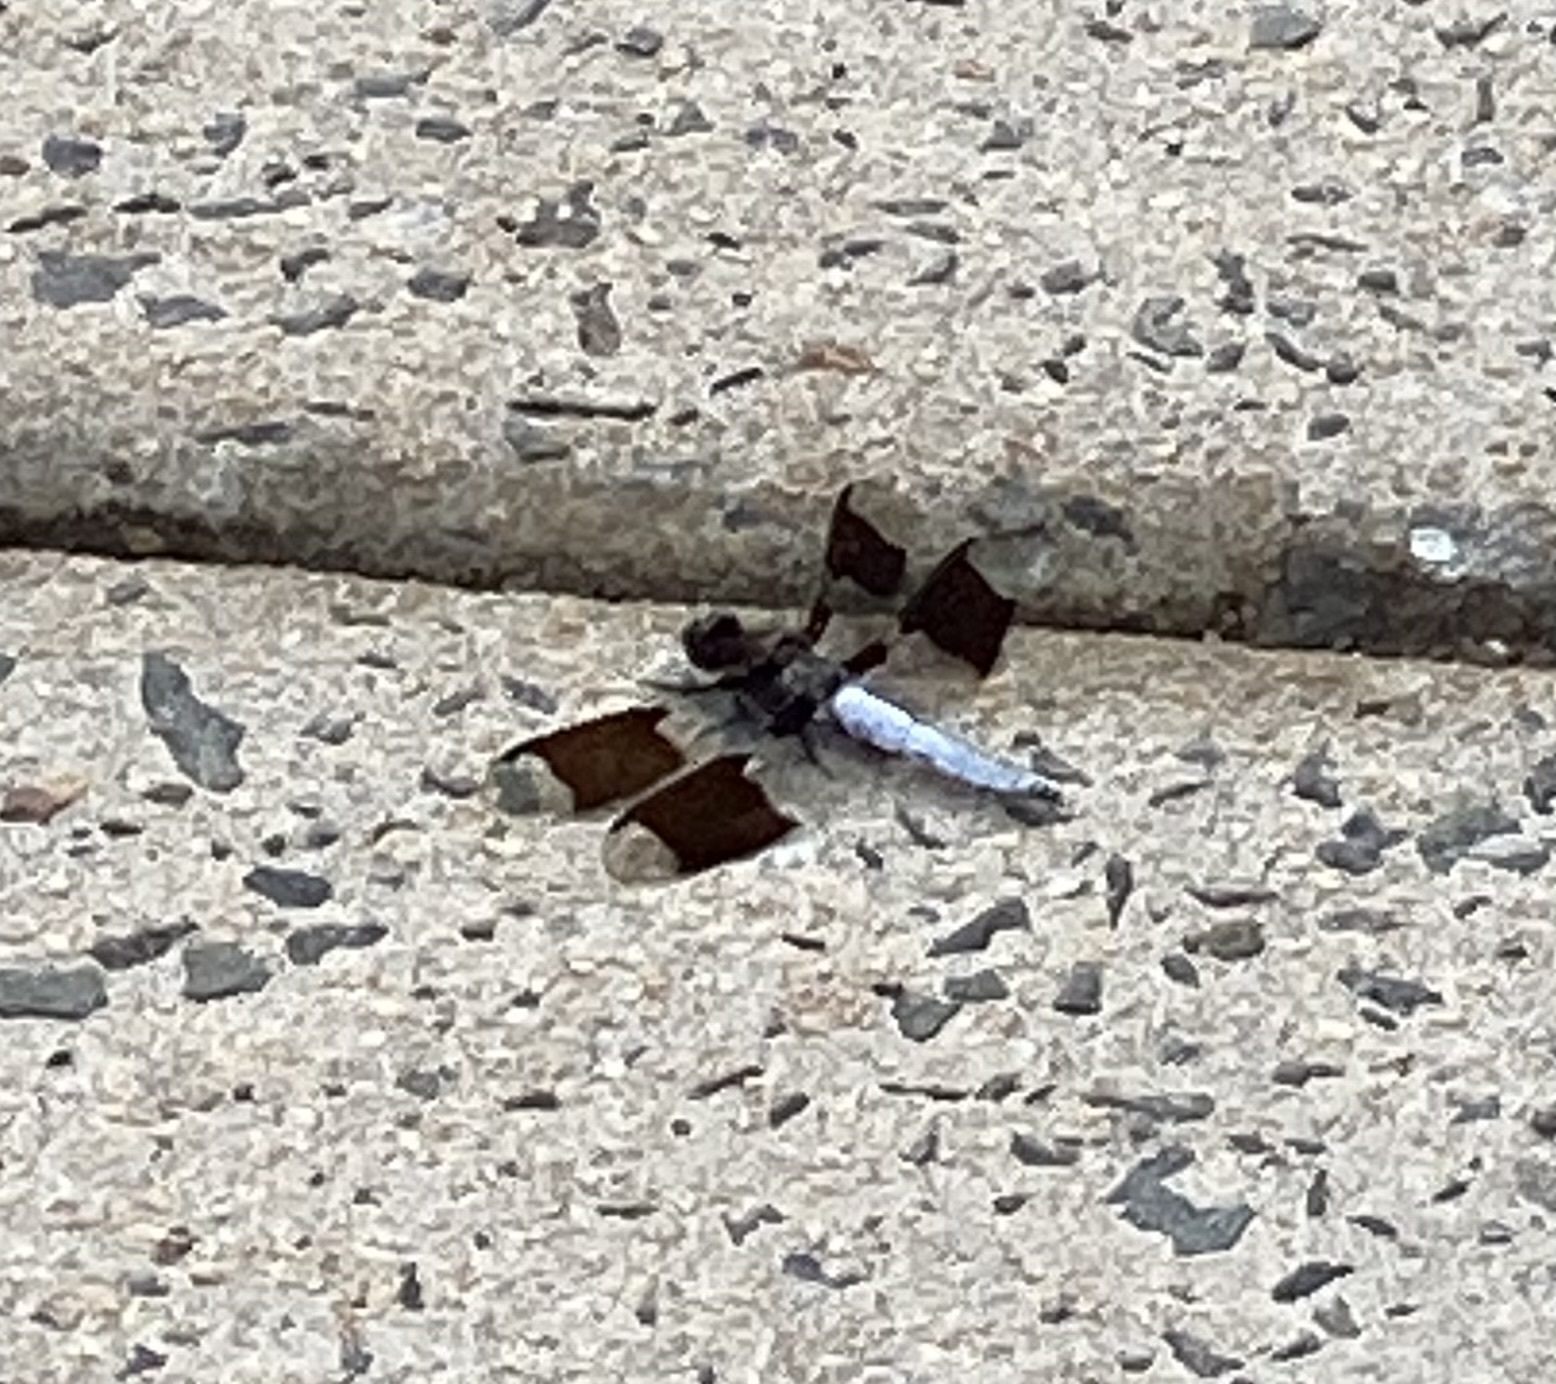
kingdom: Animalia
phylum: Arthropoda
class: Insecta
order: Odonata
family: Libellulidae
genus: Plathemis
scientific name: Plathemis lydia
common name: Common whitetail
